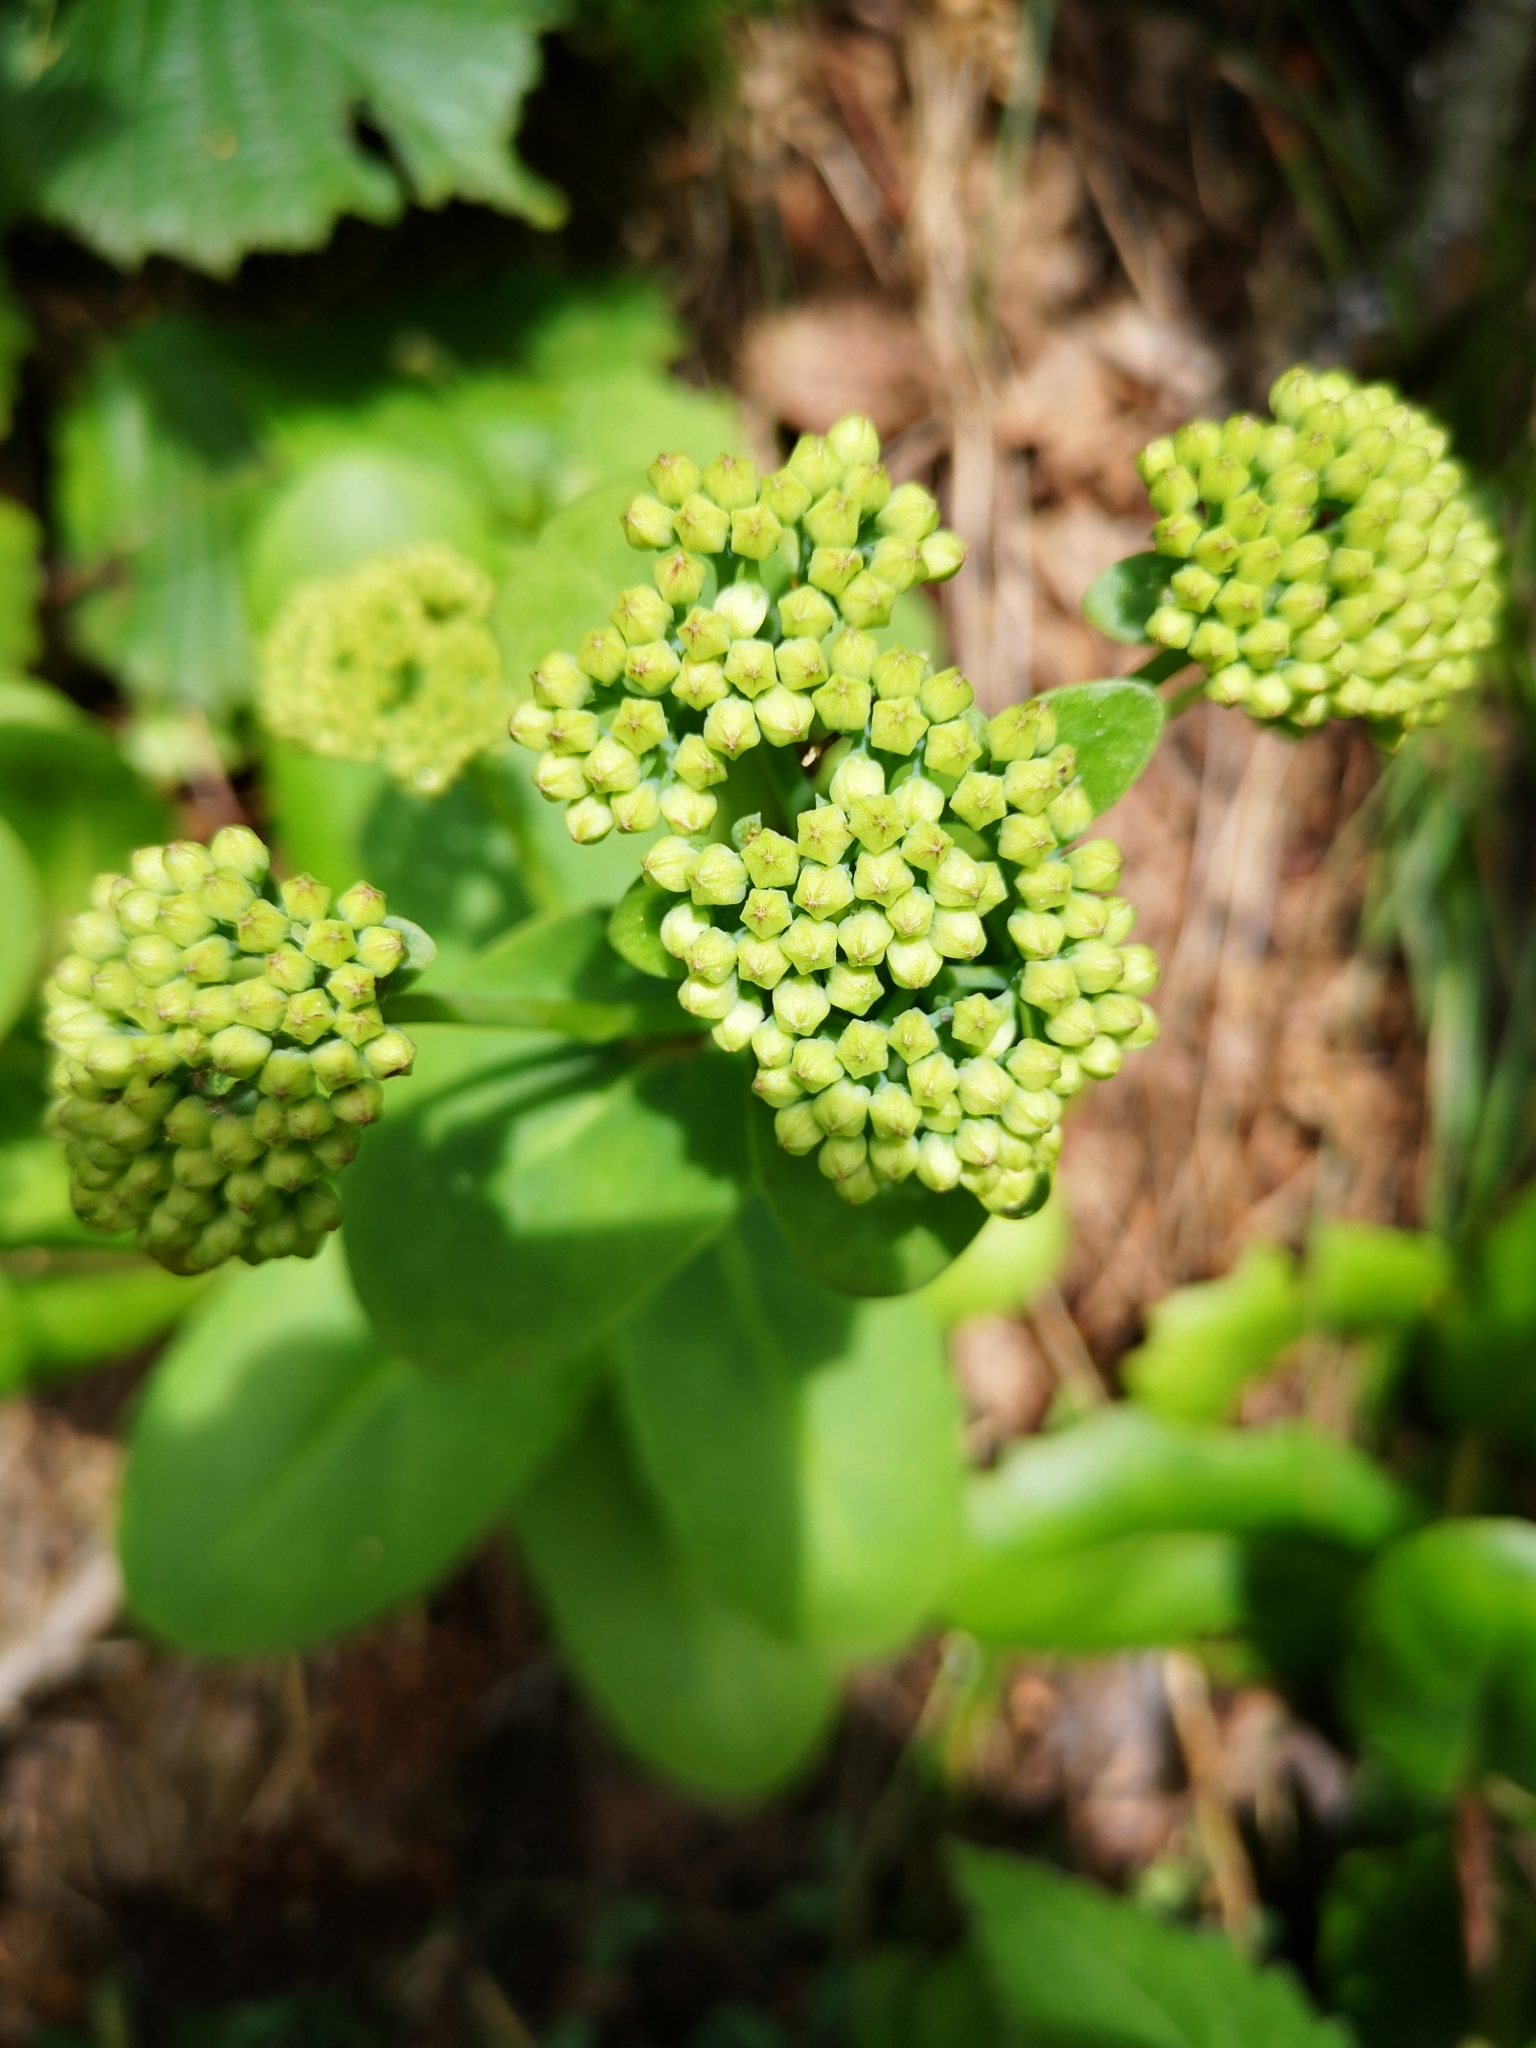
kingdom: Plantae
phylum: Tracheophyta
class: Magnoliopsida
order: Saxifragales
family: Crassulaceae
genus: Hylotelephium
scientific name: Hylotelephium maximum
